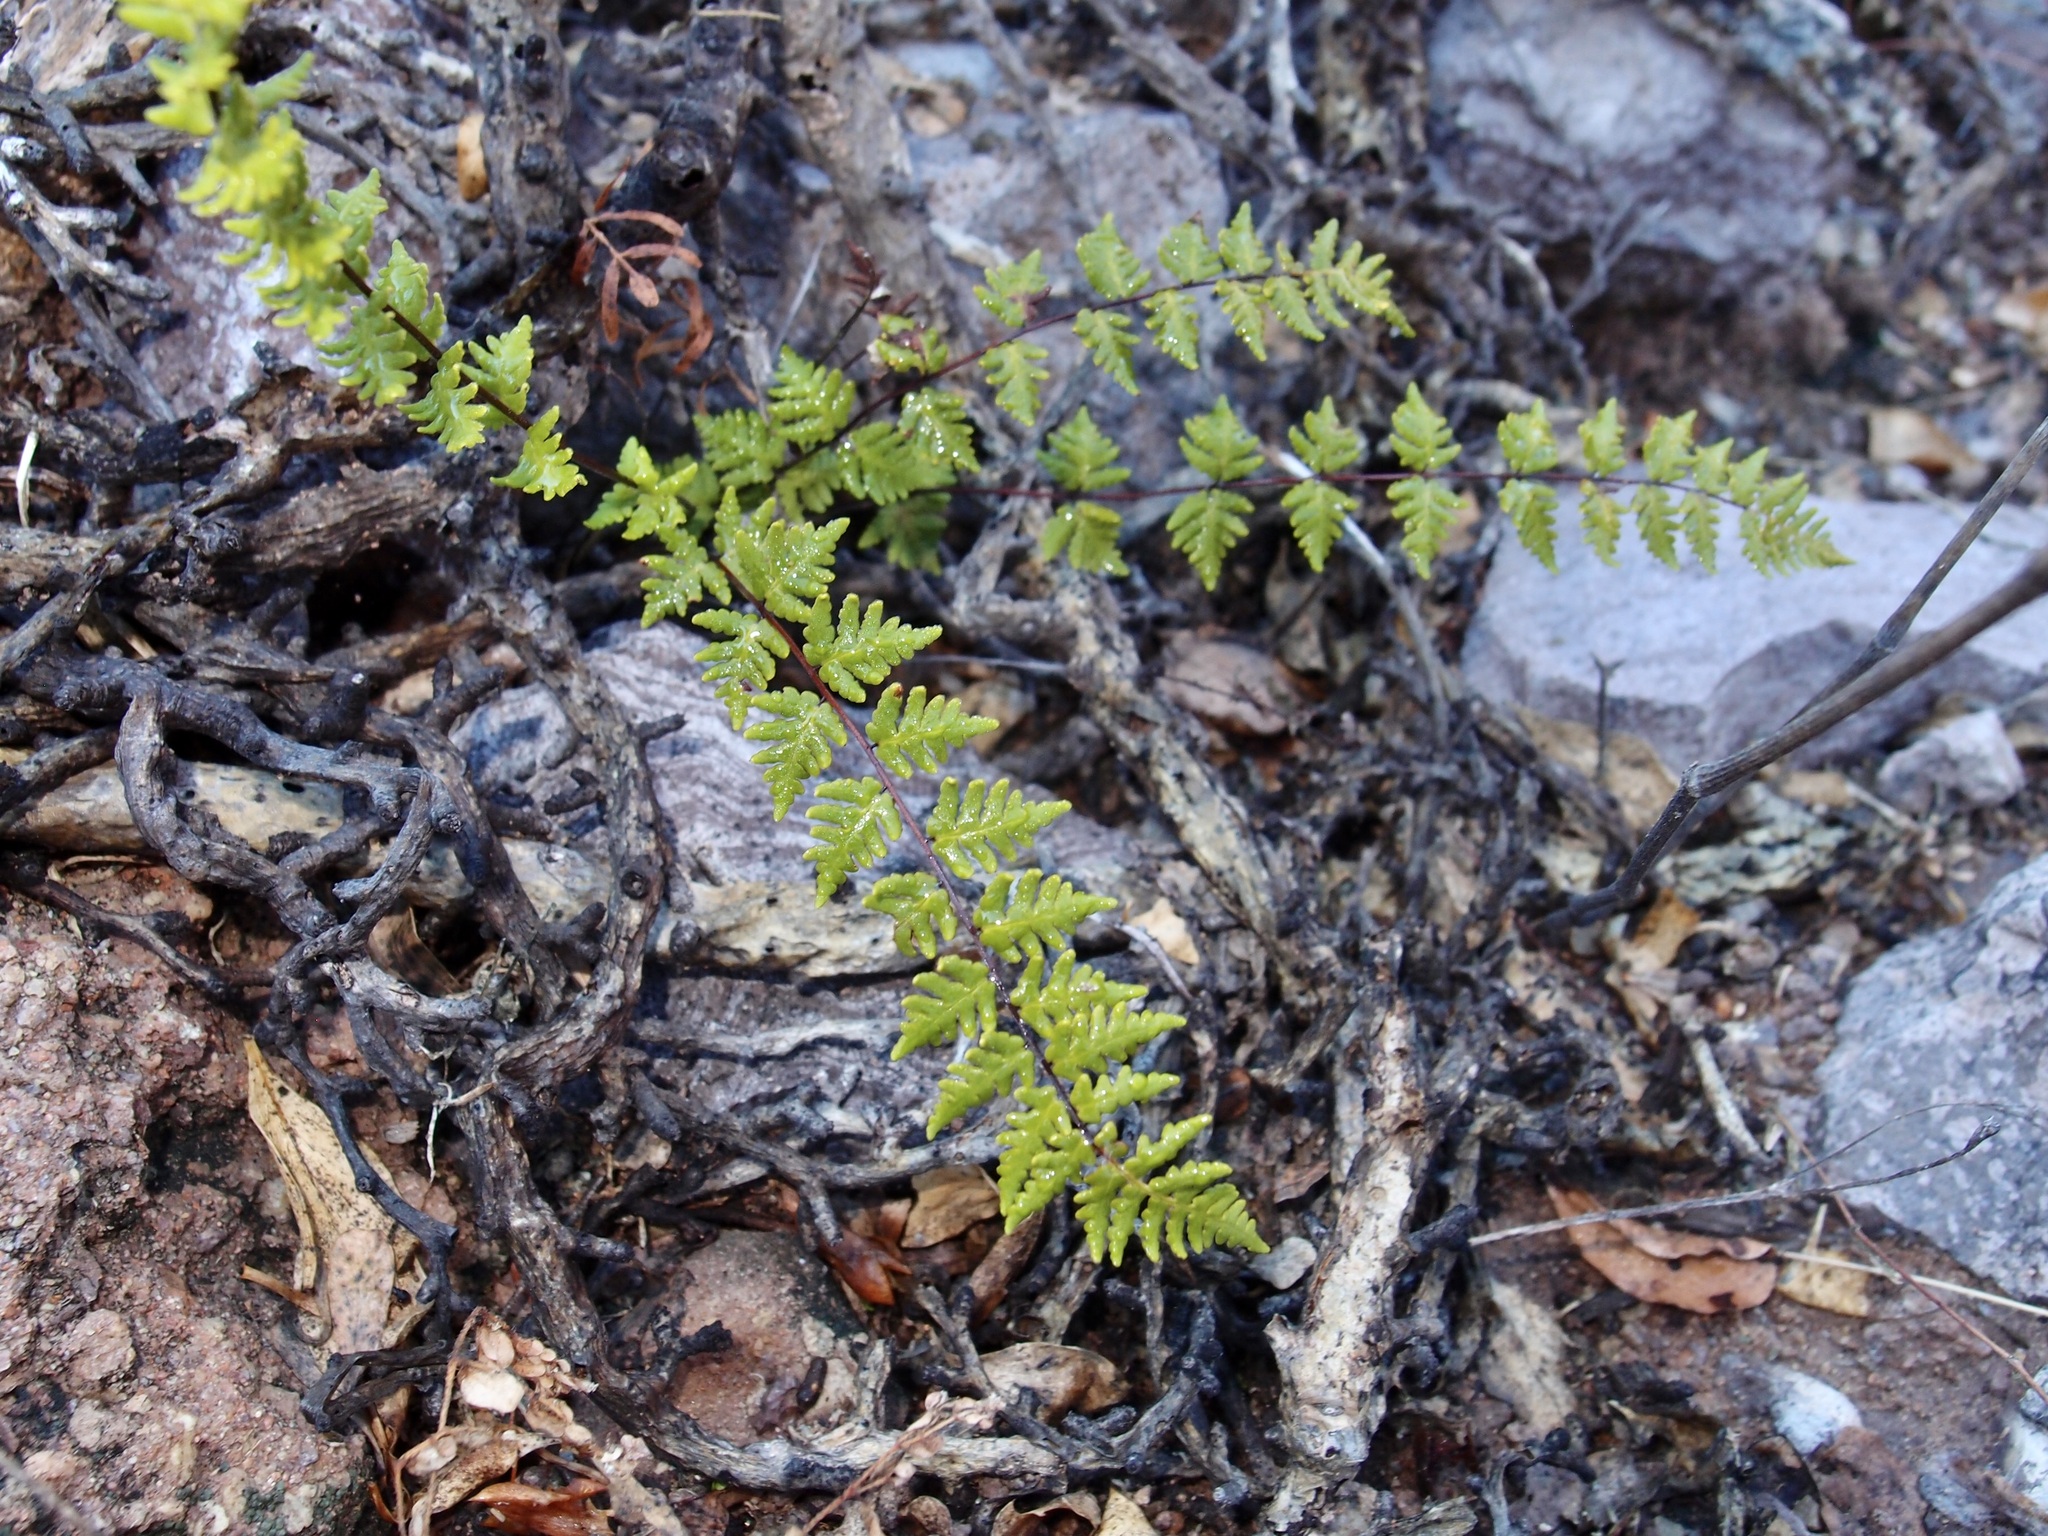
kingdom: Plantae
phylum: Tracheophyta
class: Polypodiopsida
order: Polypodiales
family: Pteridaceae
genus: Notholaena
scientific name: Notholaena lemmonii
